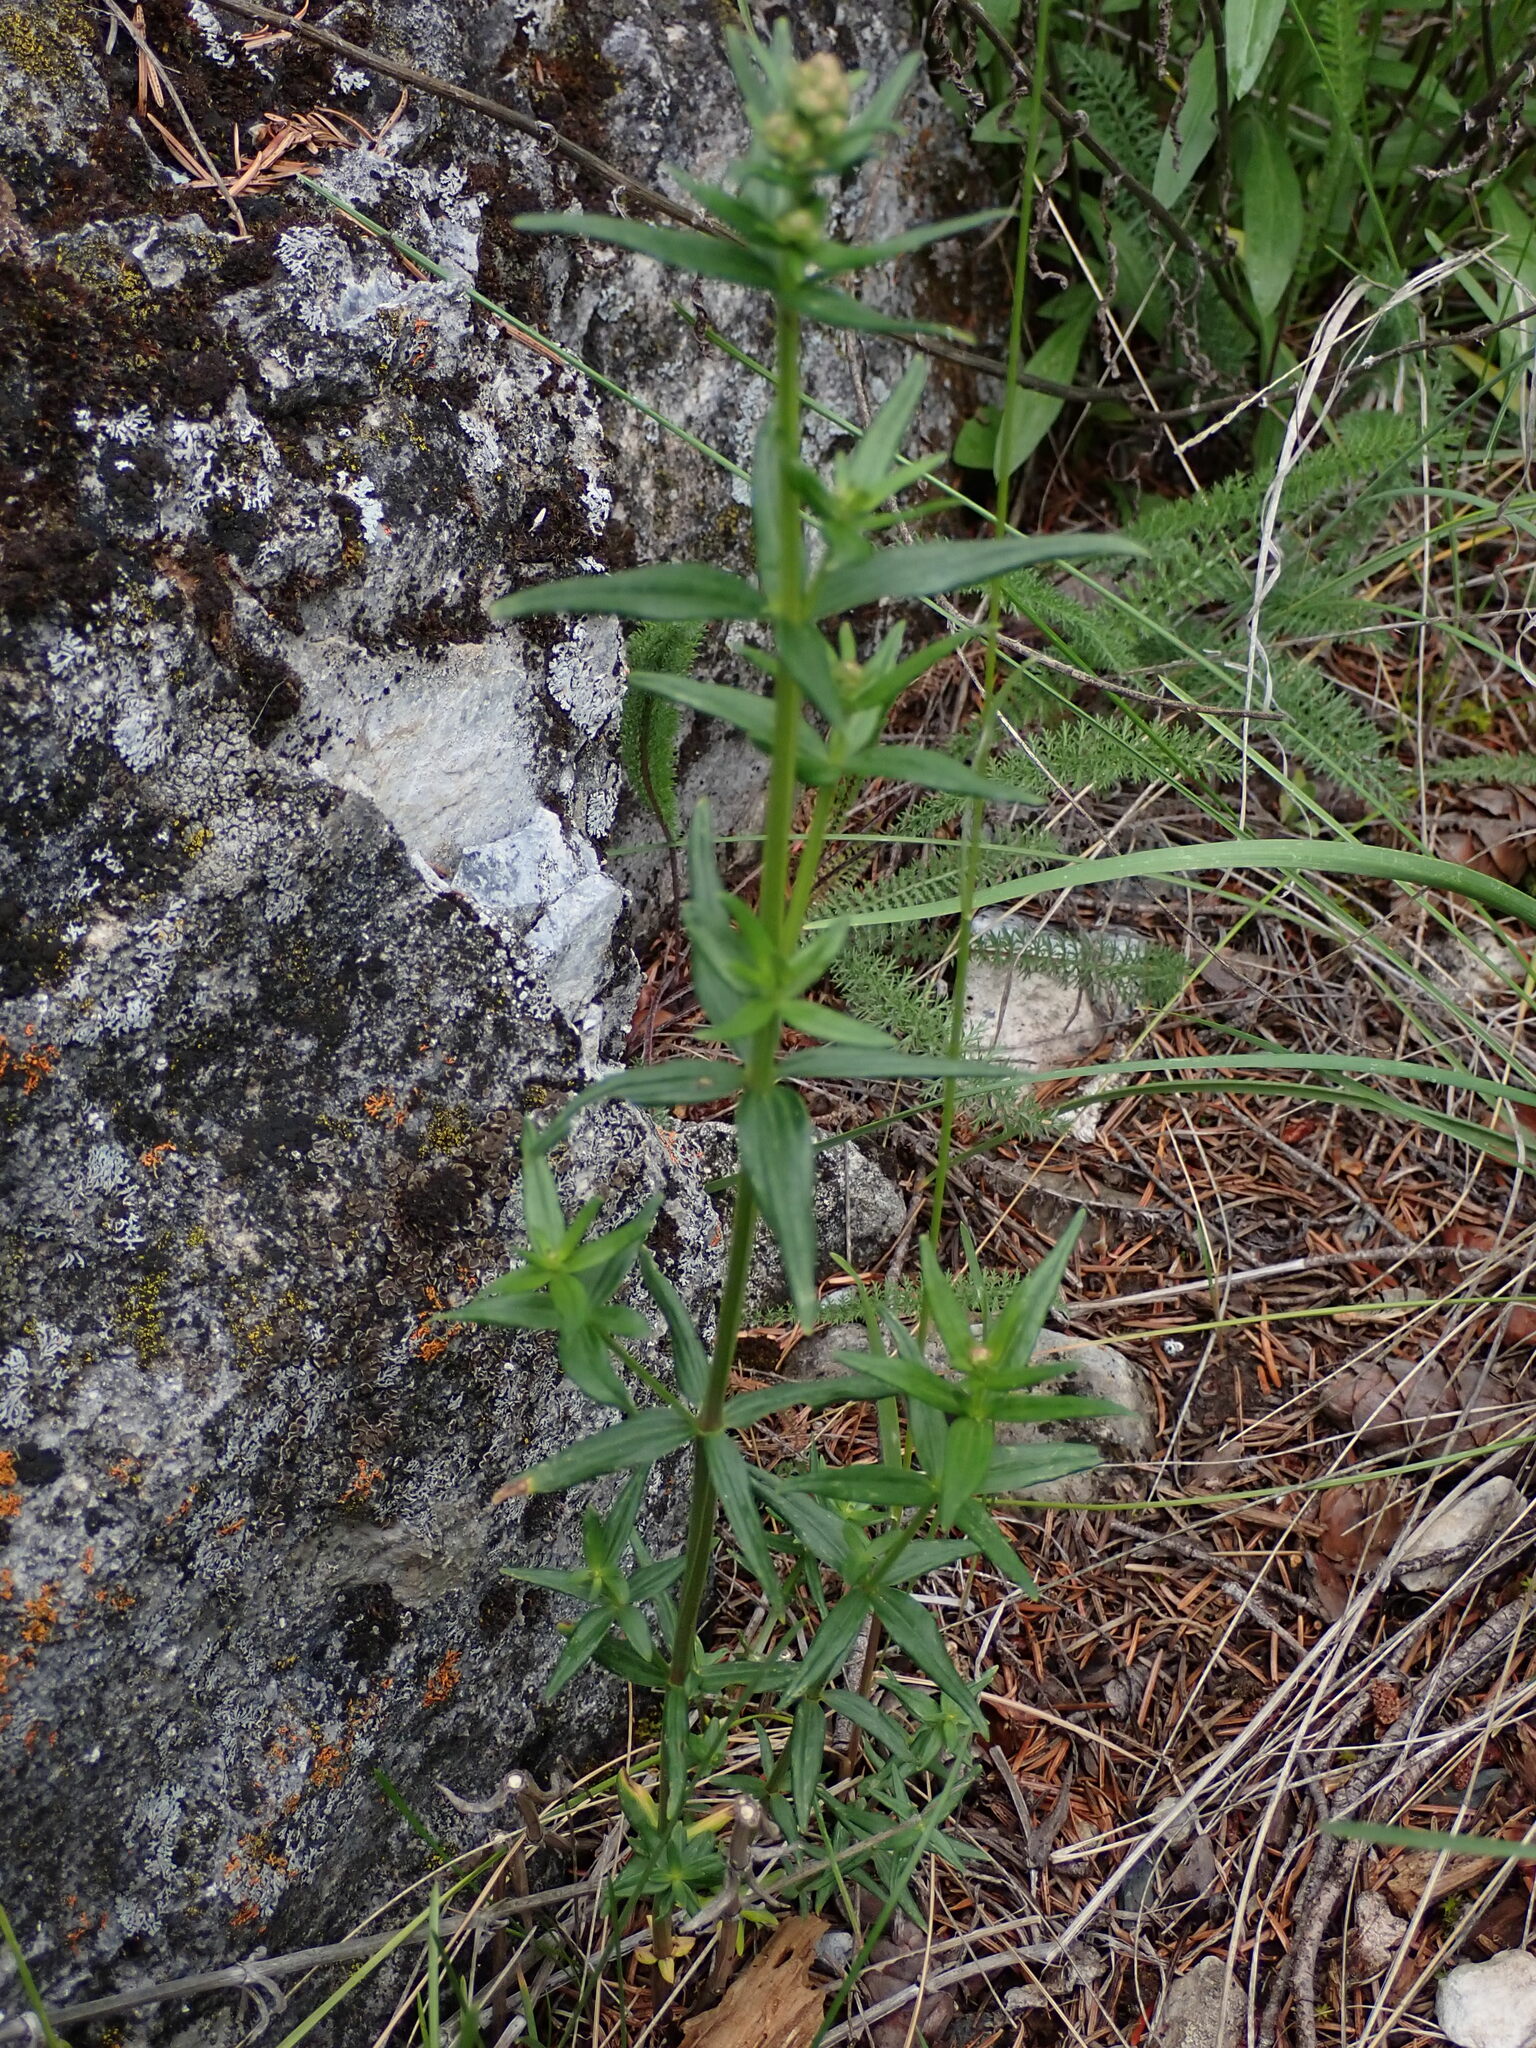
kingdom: Plantae
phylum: Tracheophyta
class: Magnoliopsida
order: Gentianales
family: Rubiaceae
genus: Galium
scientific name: Galium boreale
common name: Northern bedstraw
